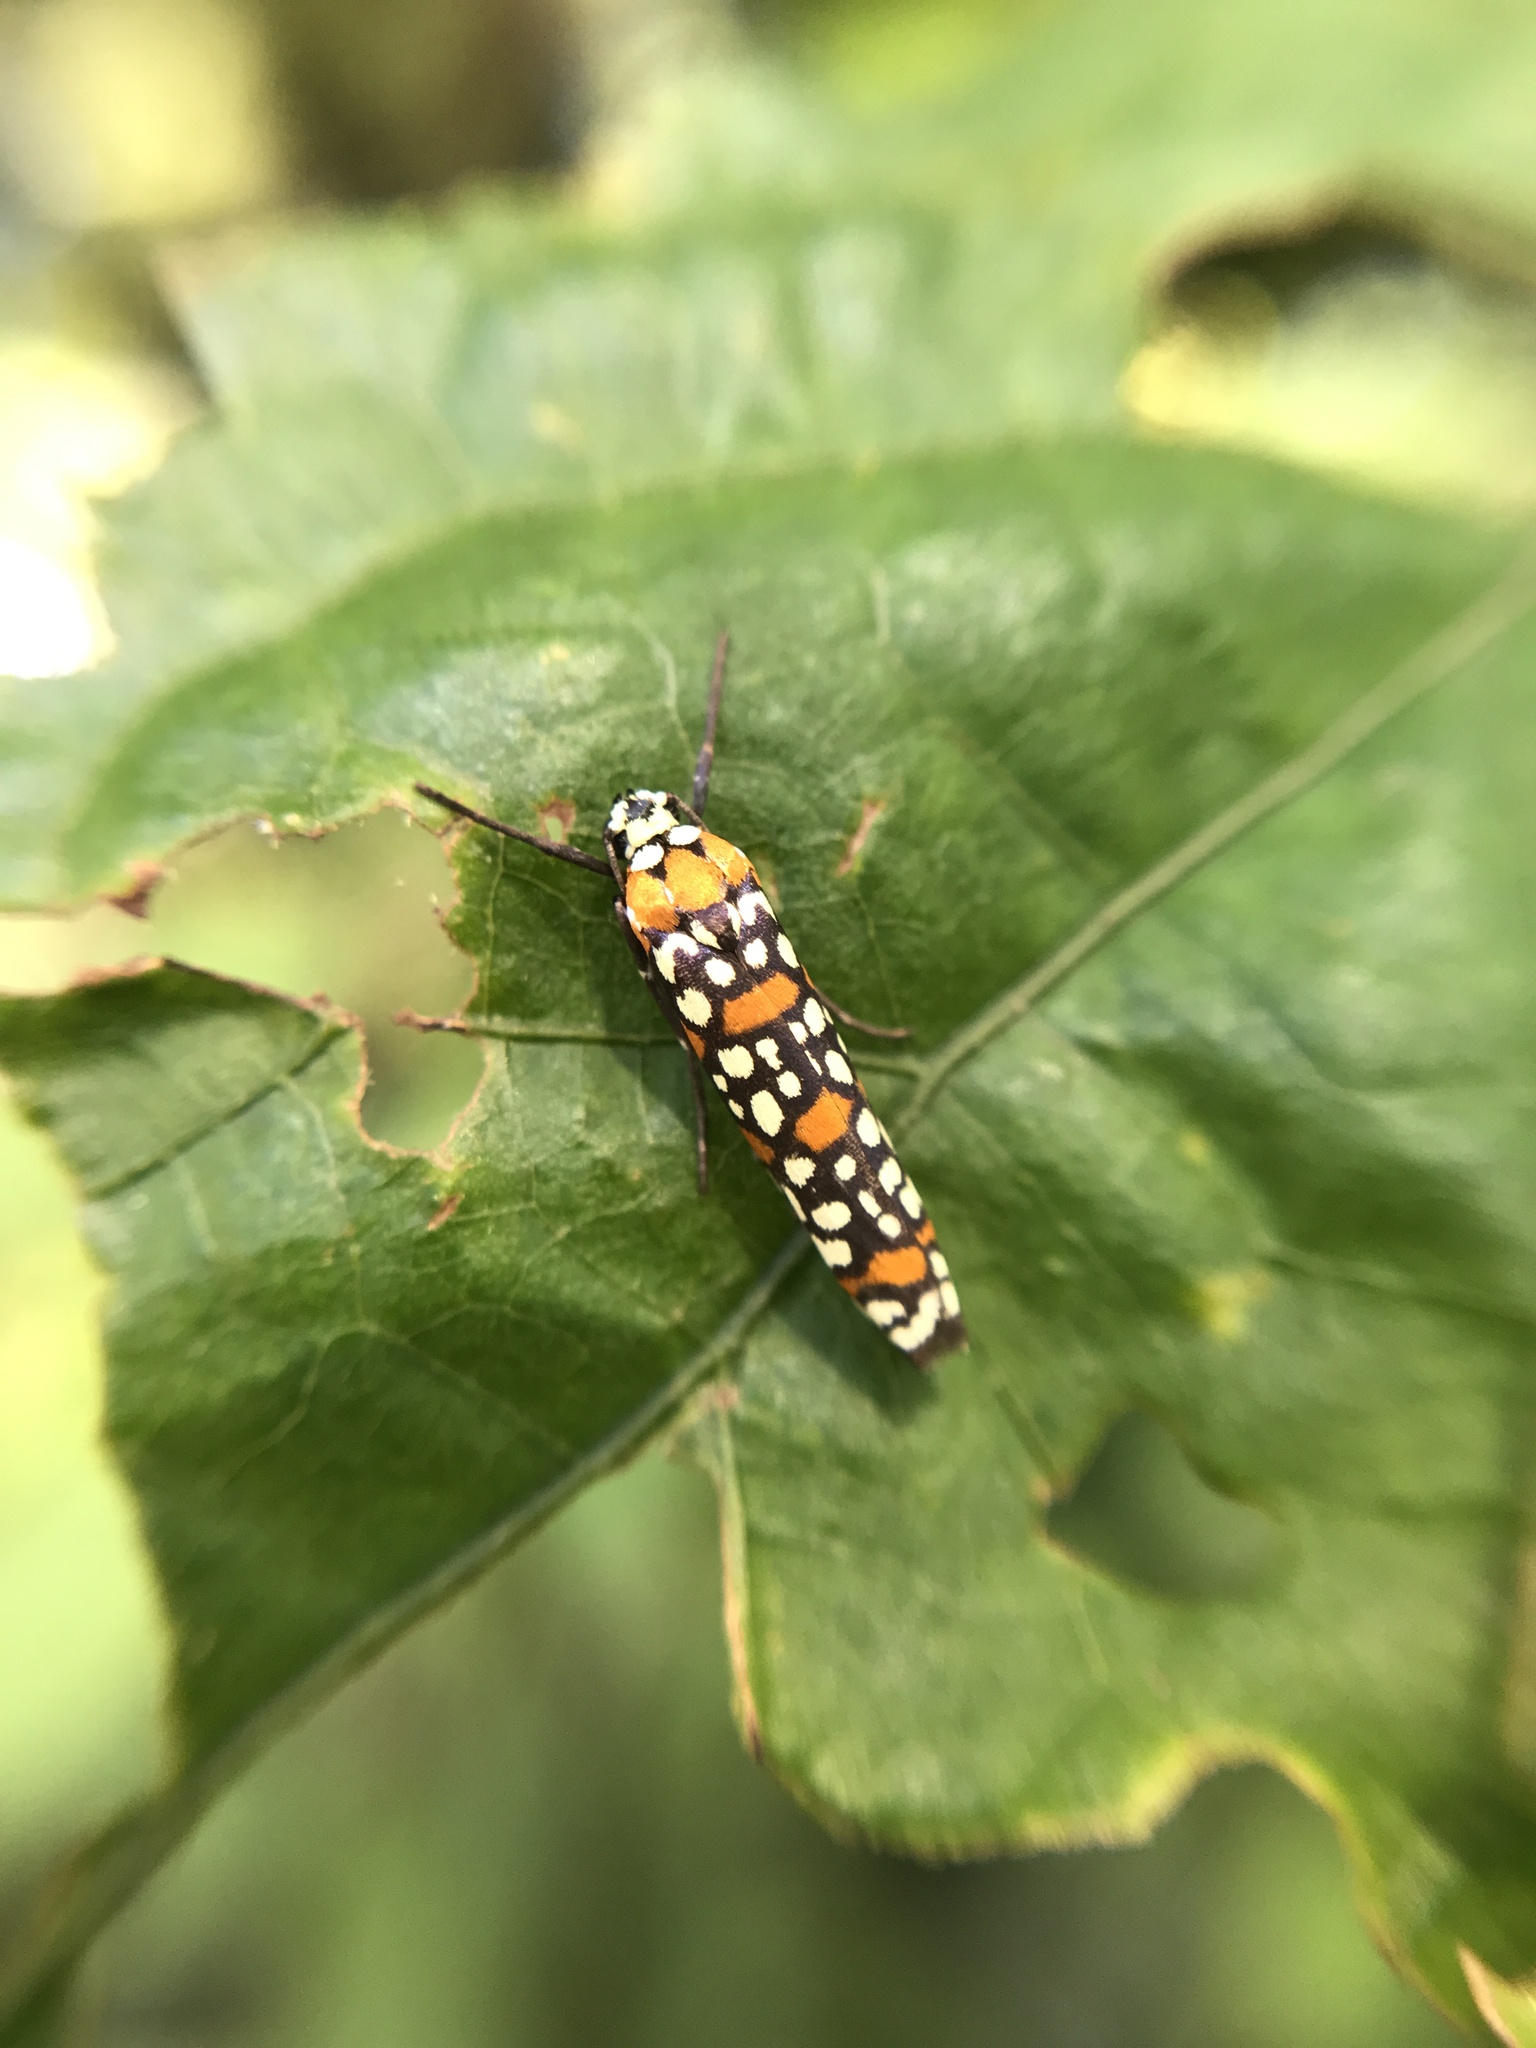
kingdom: Animalia
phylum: Arthropoda
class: Insecta
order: Lepidoptera
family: Attevidae
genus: Atteva
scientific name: Atteva punctella
